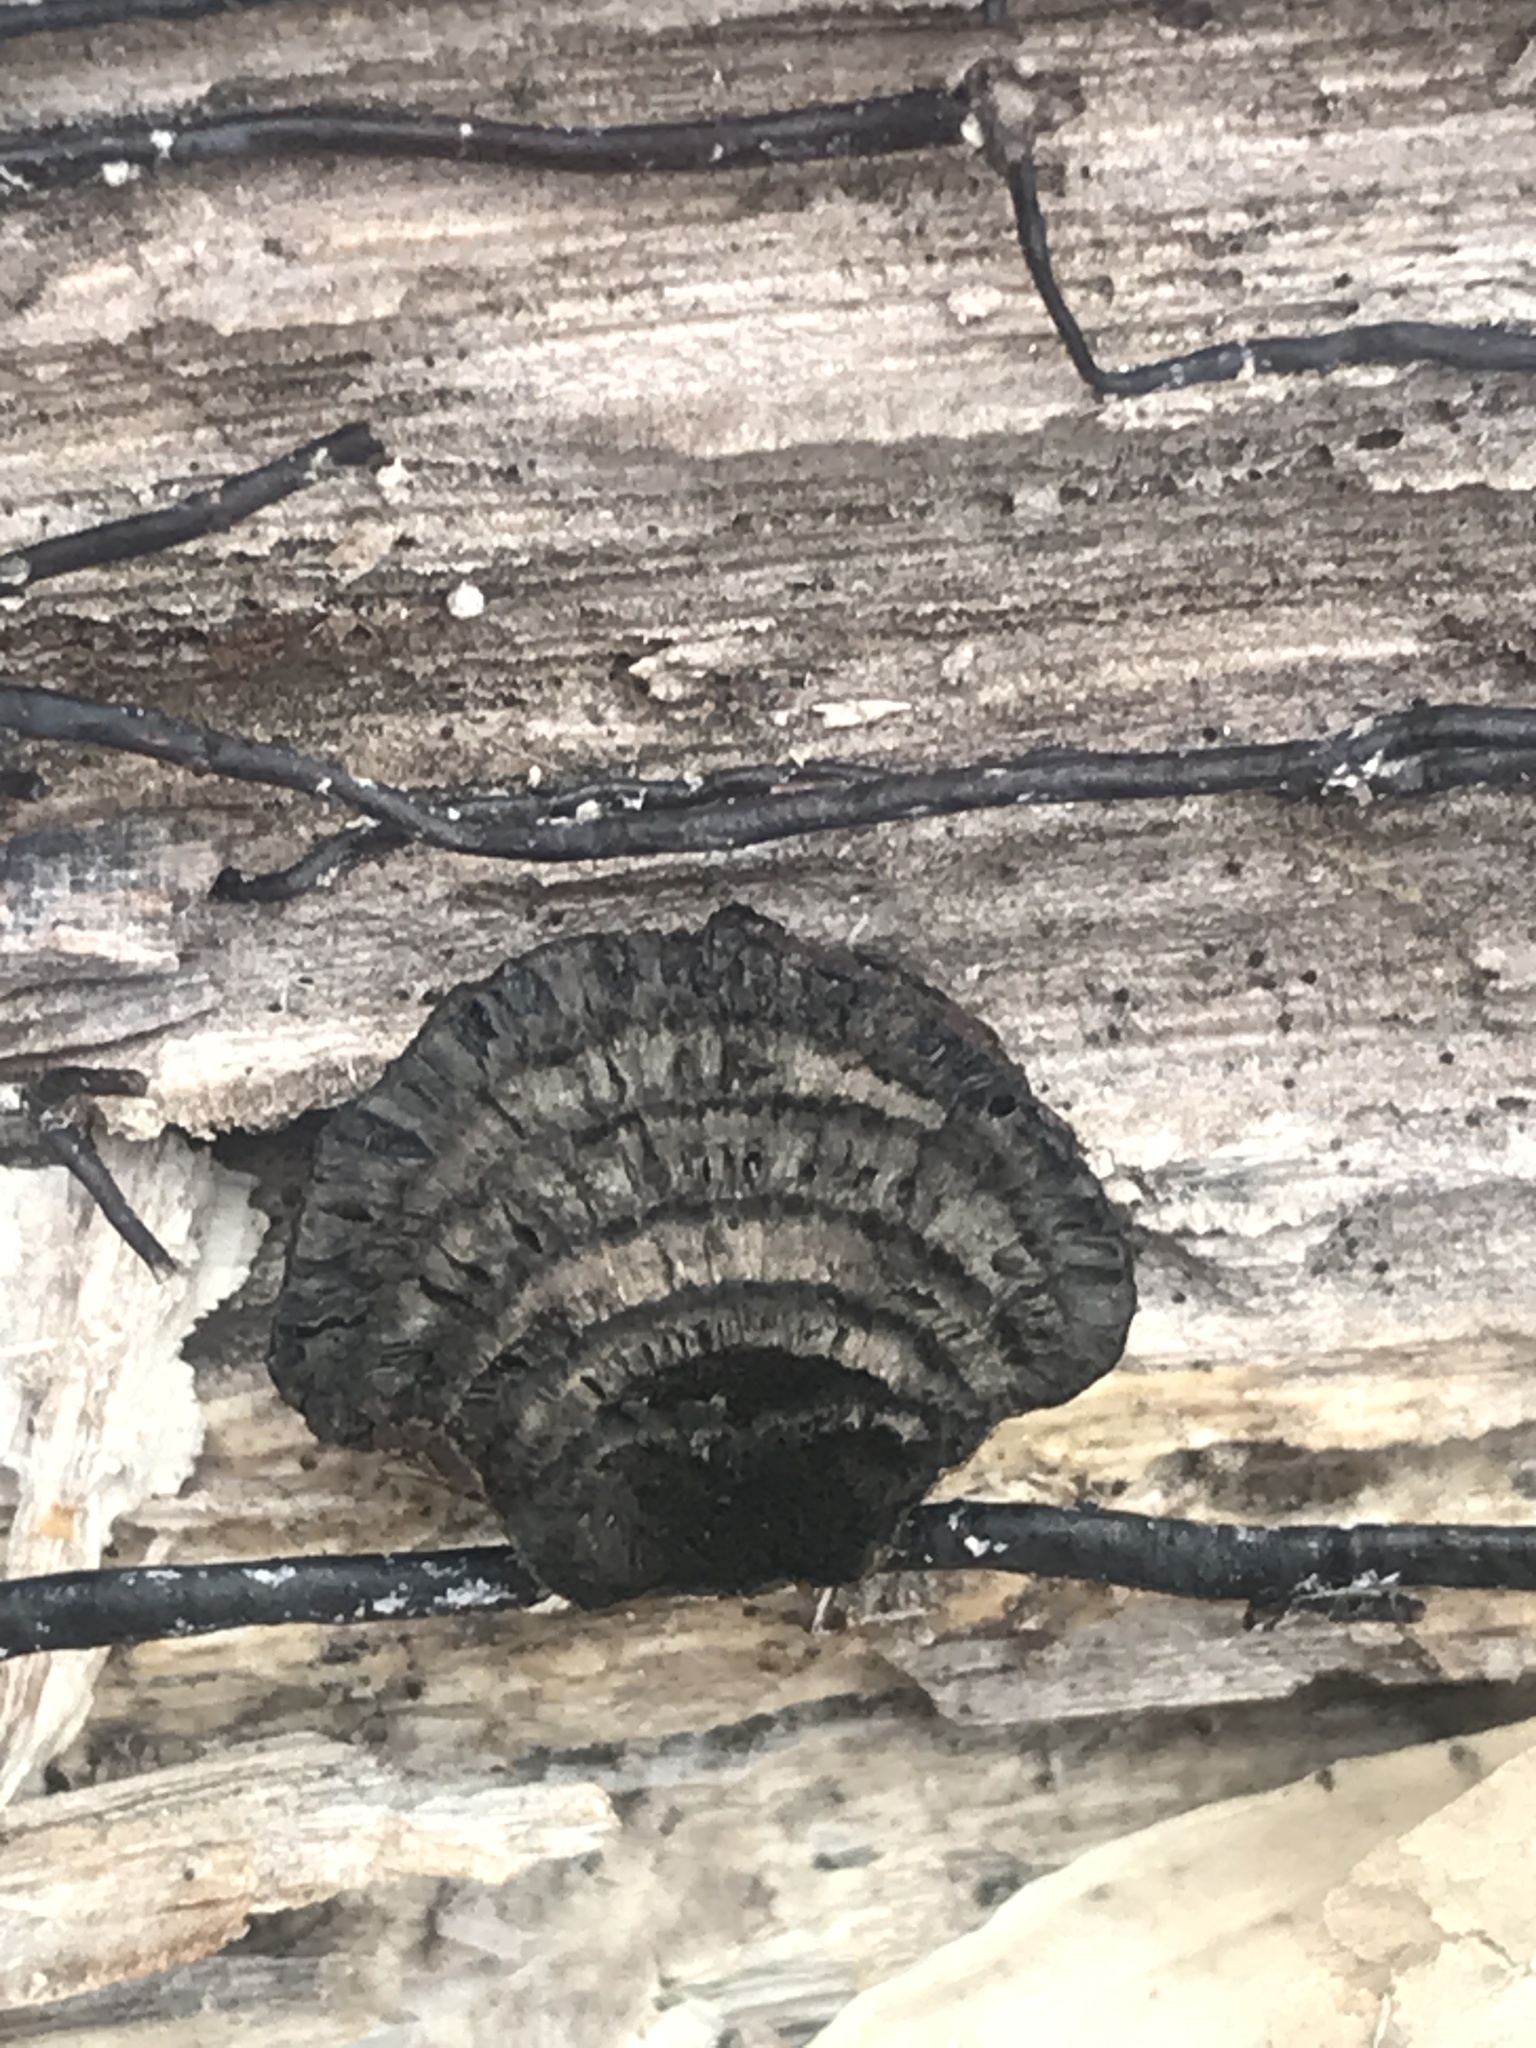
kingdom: Fungi
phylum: Ascomycota
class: Sordariomycetes
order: Xylariales
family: Hypoxylaceae
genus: Daldinia
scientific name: Daldinia childiae
